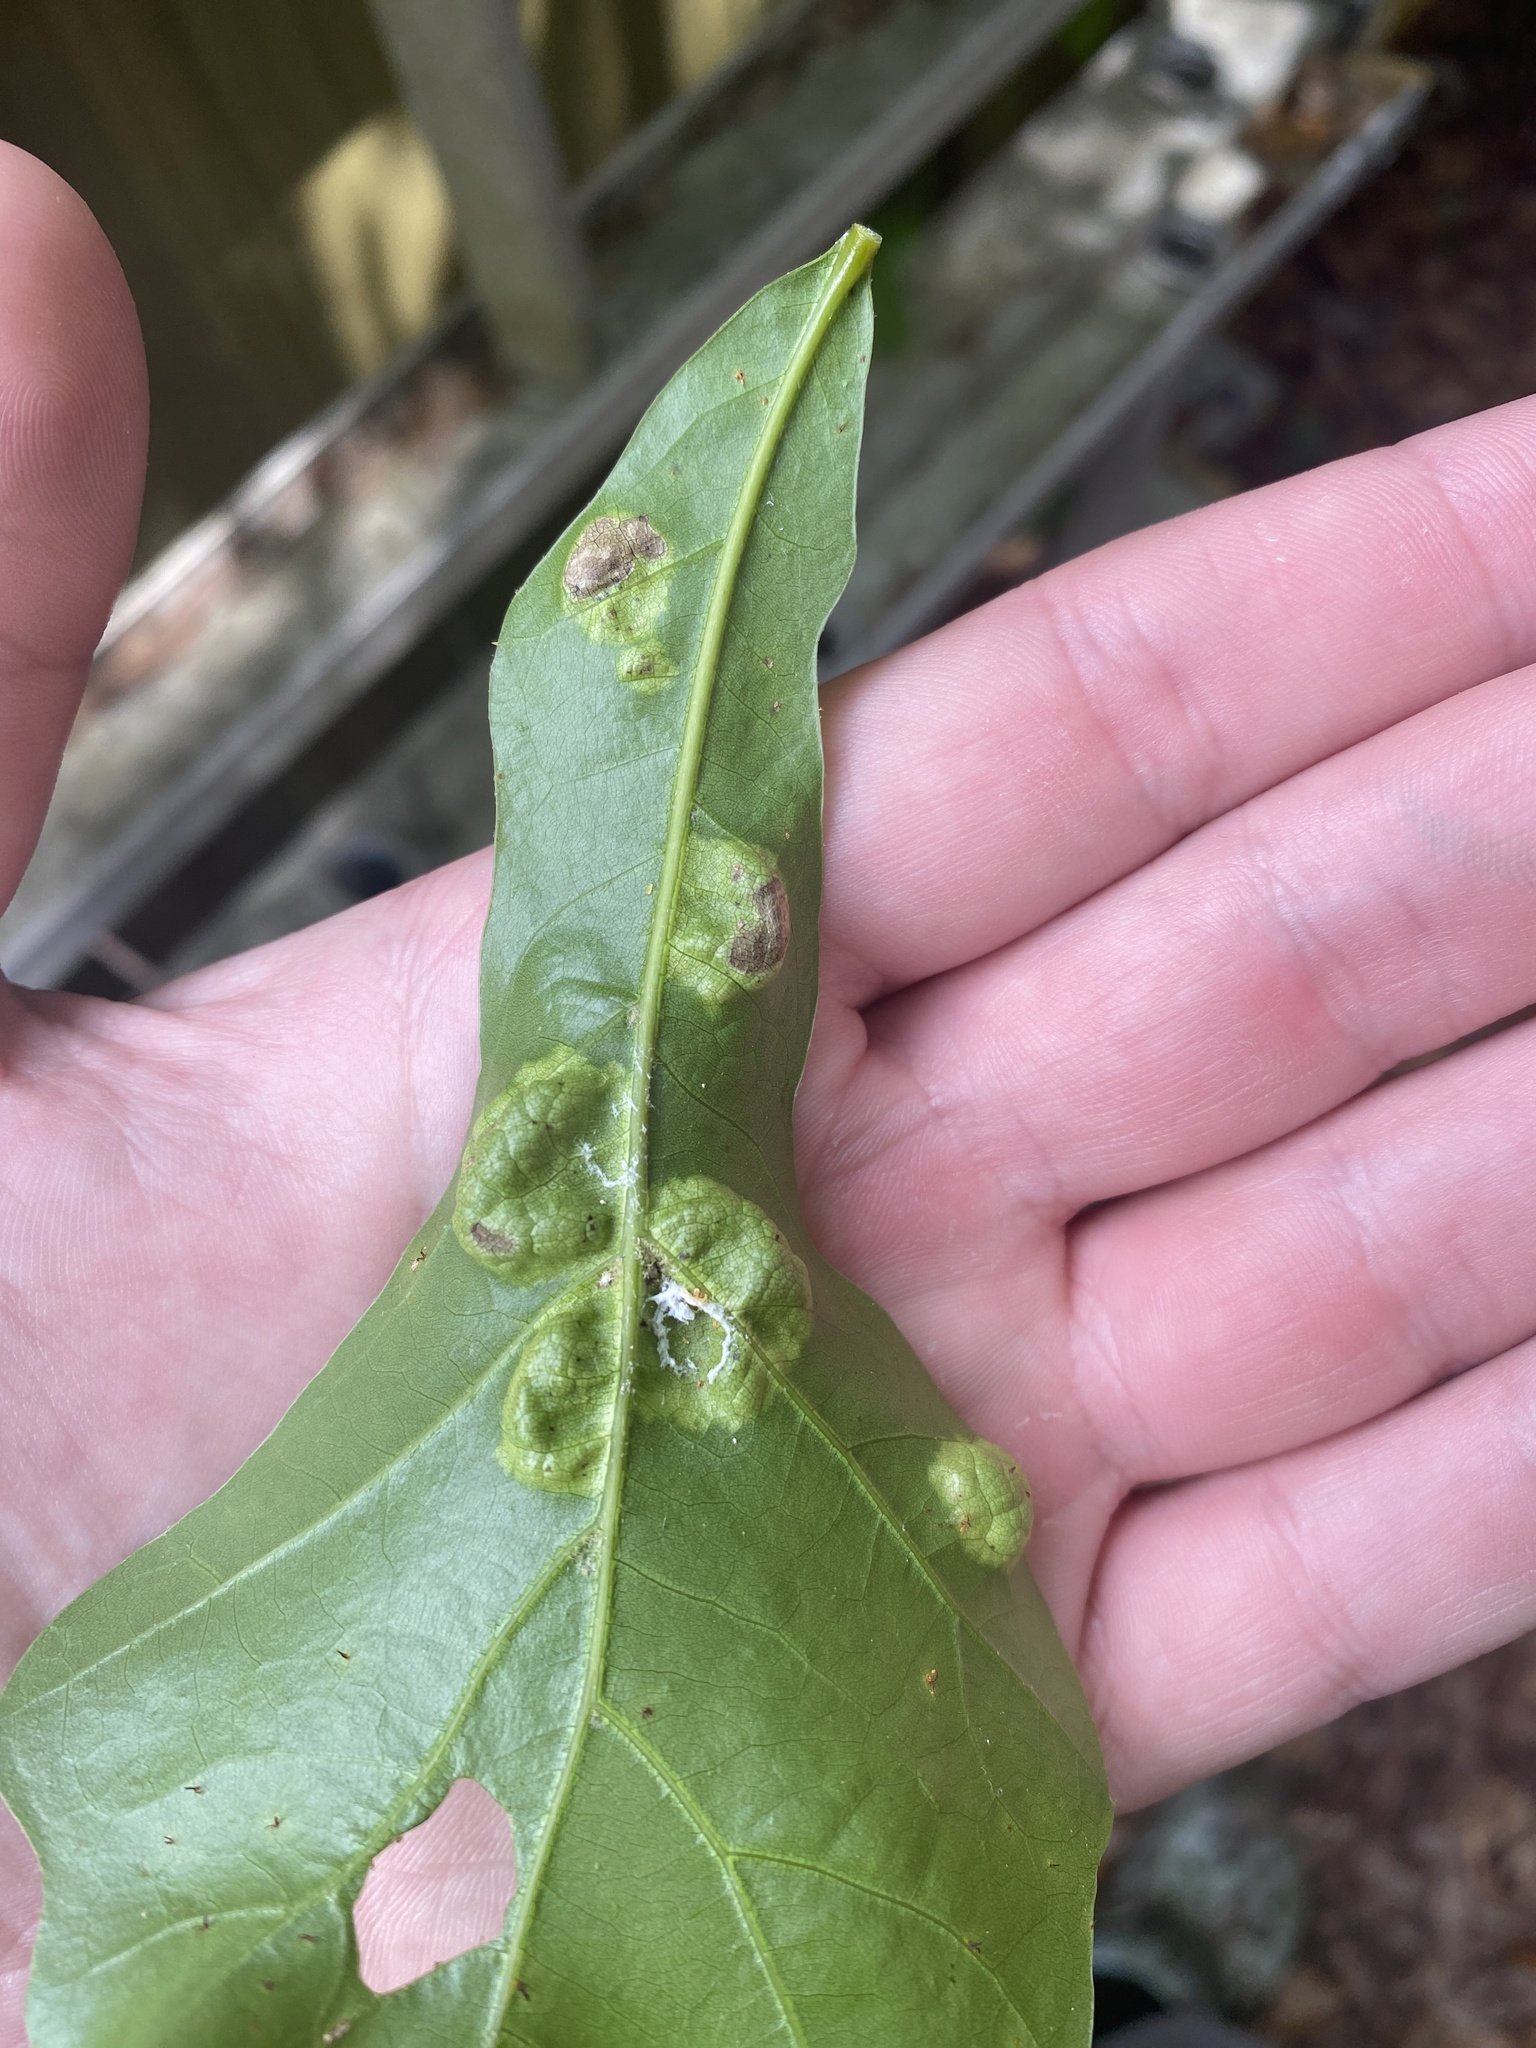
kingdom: Fungi
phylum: Ascomycota
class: Taphrinomycetes
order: Taphrinales
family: Taphrinaceae
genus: Taphrina
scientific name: Taphrina caerulescens
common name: Oak leaf blister
